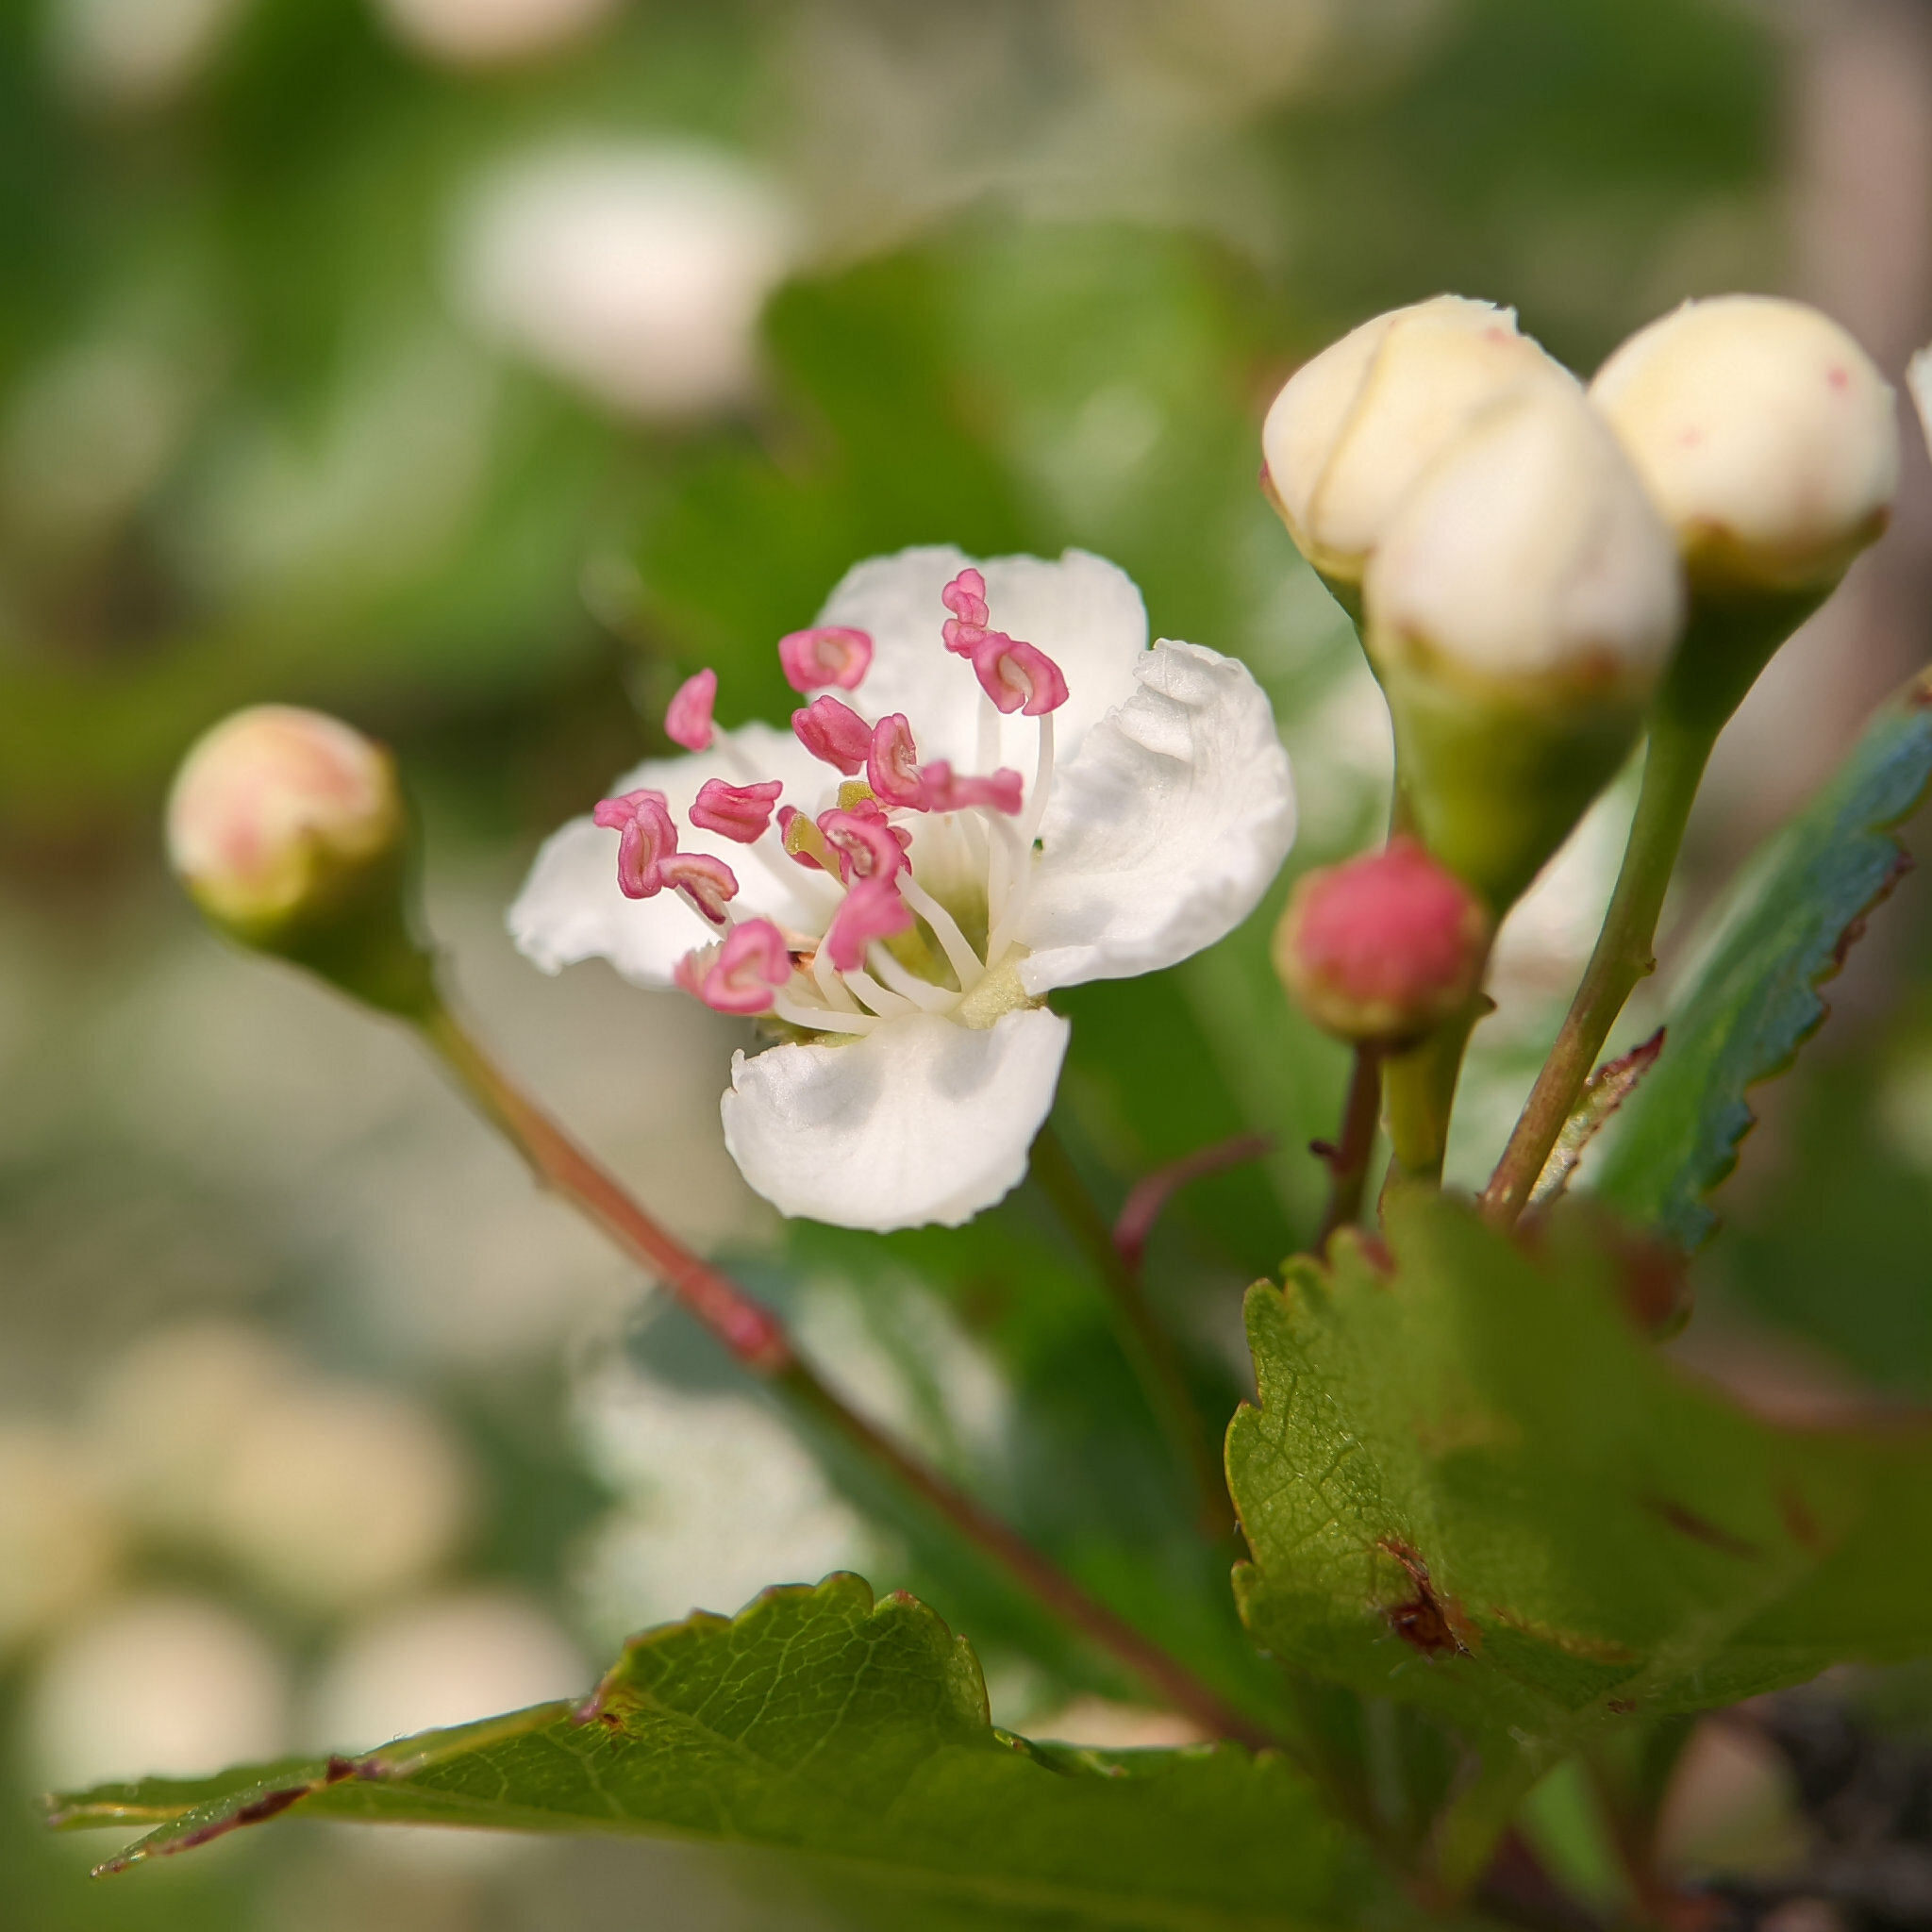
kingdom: Plantae
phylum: Tracheophyta
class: Magnoliopsida
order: Rosales
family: Rosaceae
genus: Crataegus
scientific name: Crataegus laevigata
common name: Midland hawthorn
